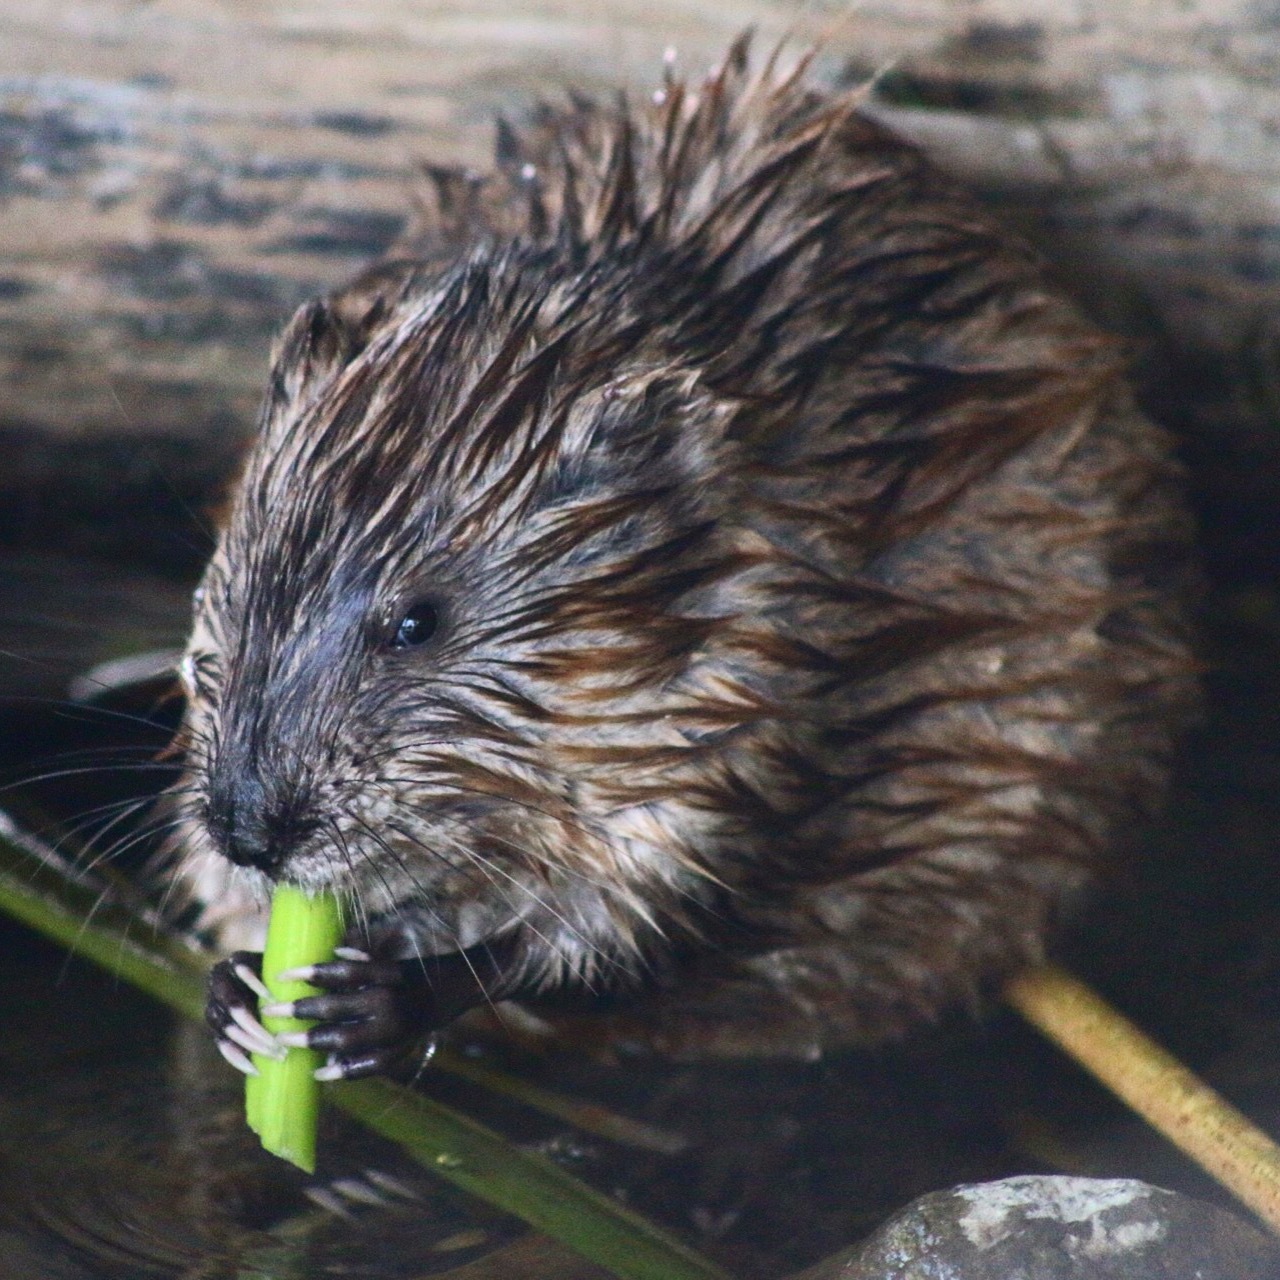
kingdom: Animalia
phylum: Chordata
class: Mammalia
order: Rodentia
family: Cricetidae
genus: Ondatra
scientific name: Ondatra zibethicus
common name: Muskrat
